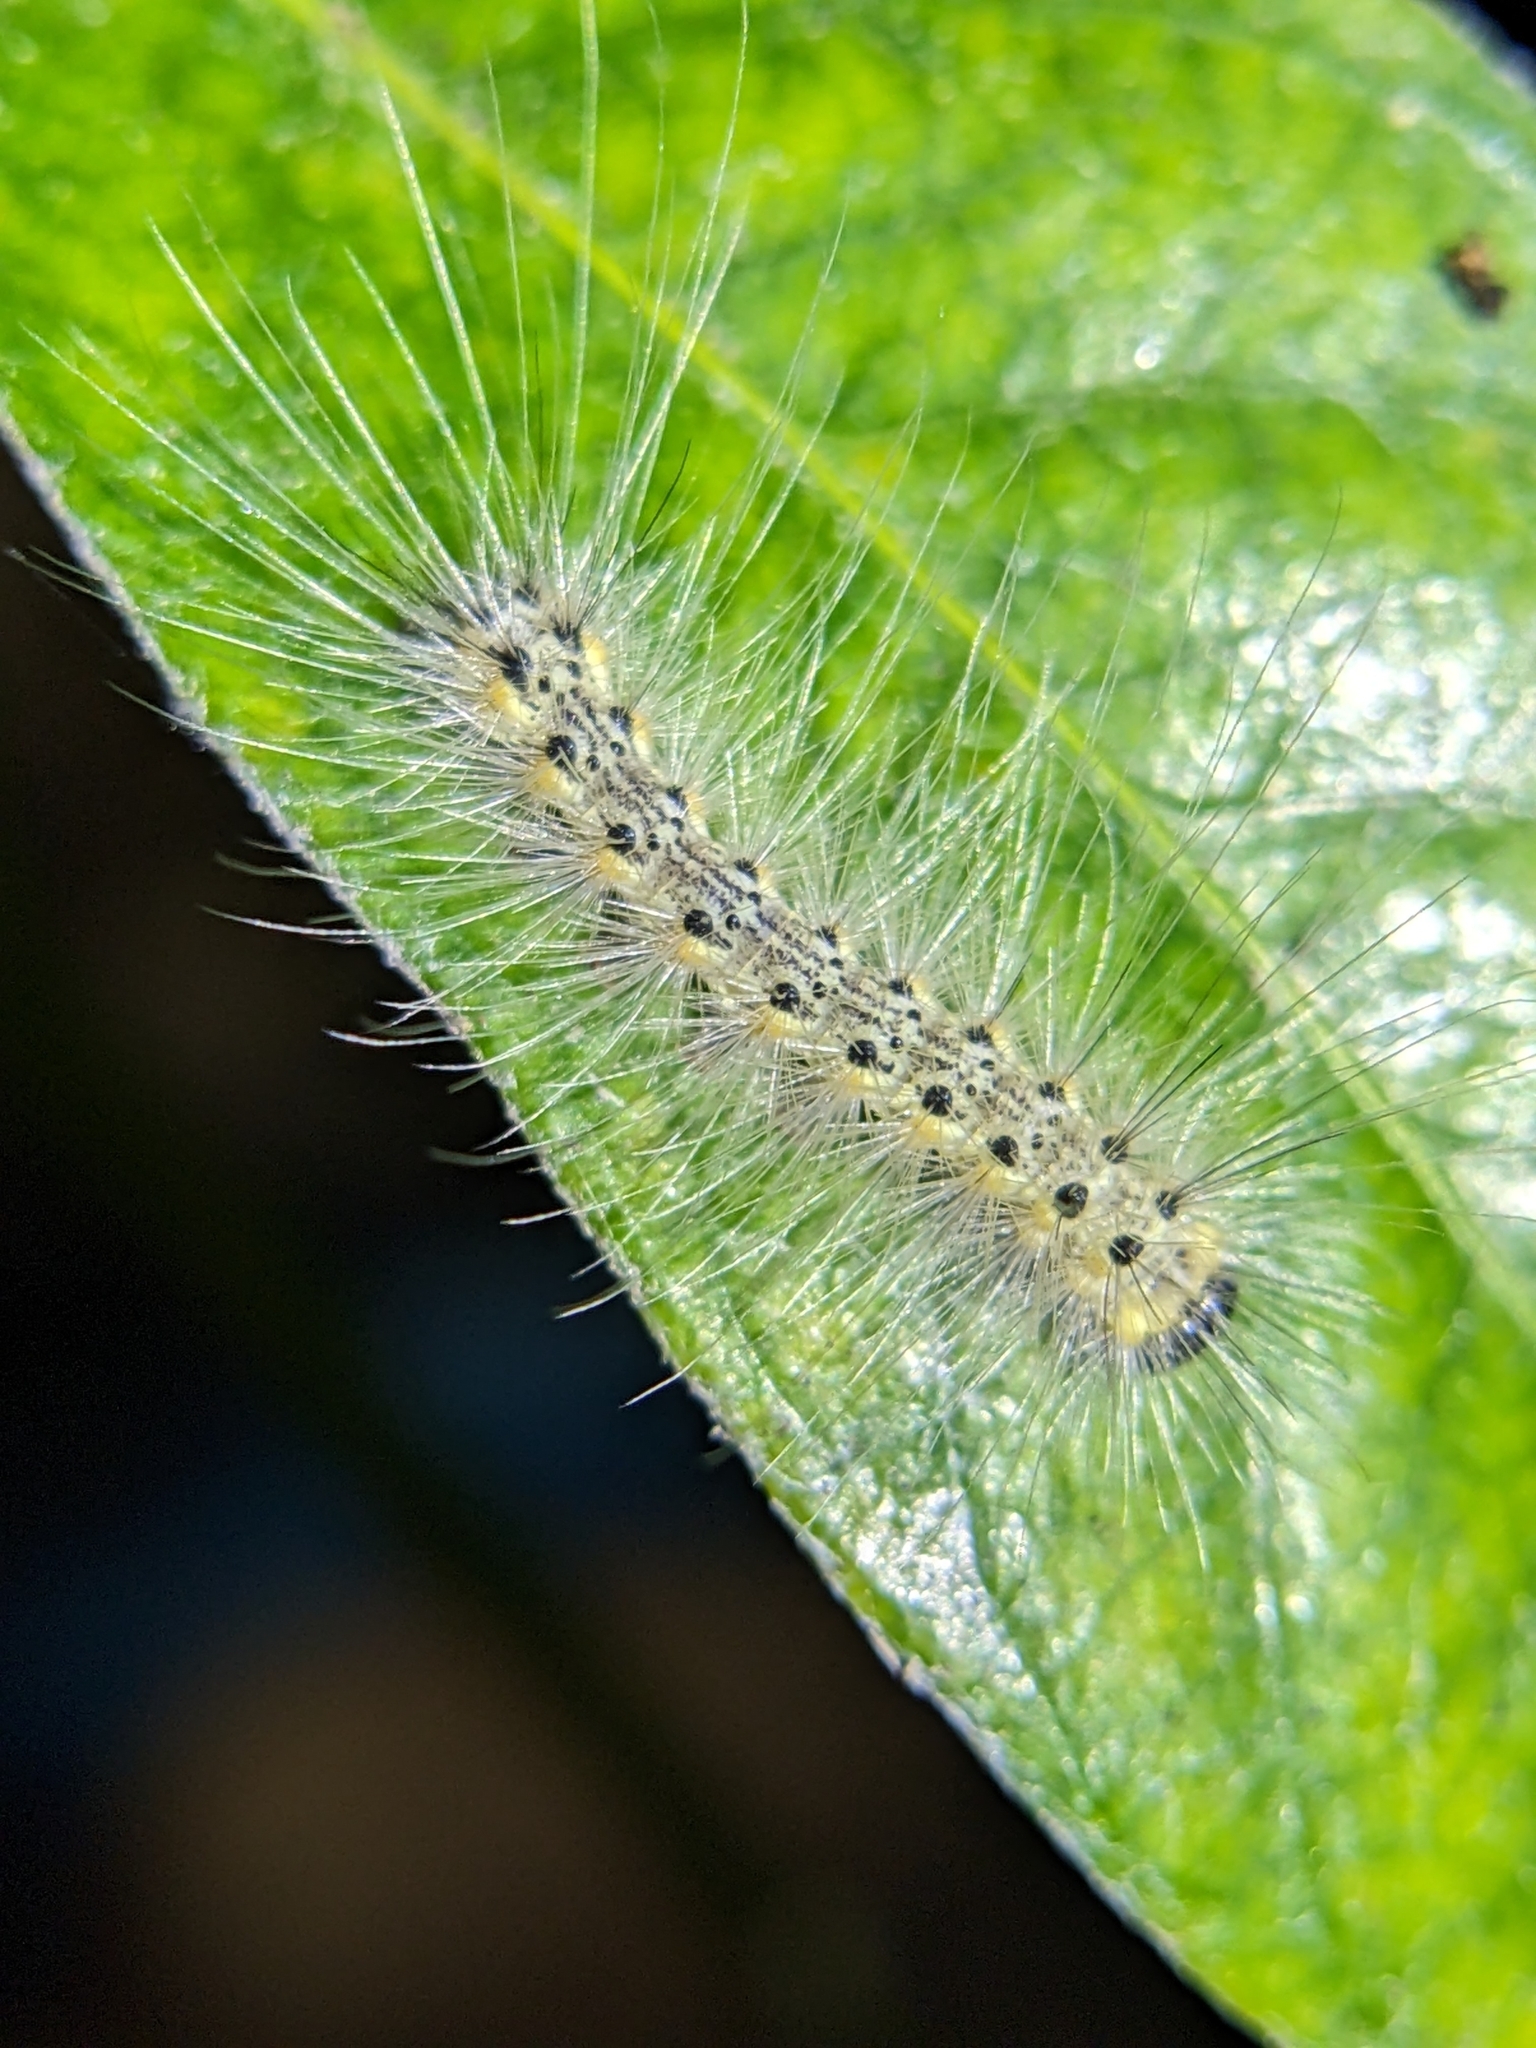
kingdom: Animalia
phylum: Arthropoda
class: Insecta
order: Lepidoptera
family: Erebidae
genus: Hyphantria
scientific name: Hyphantria cunea
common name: American white moth
